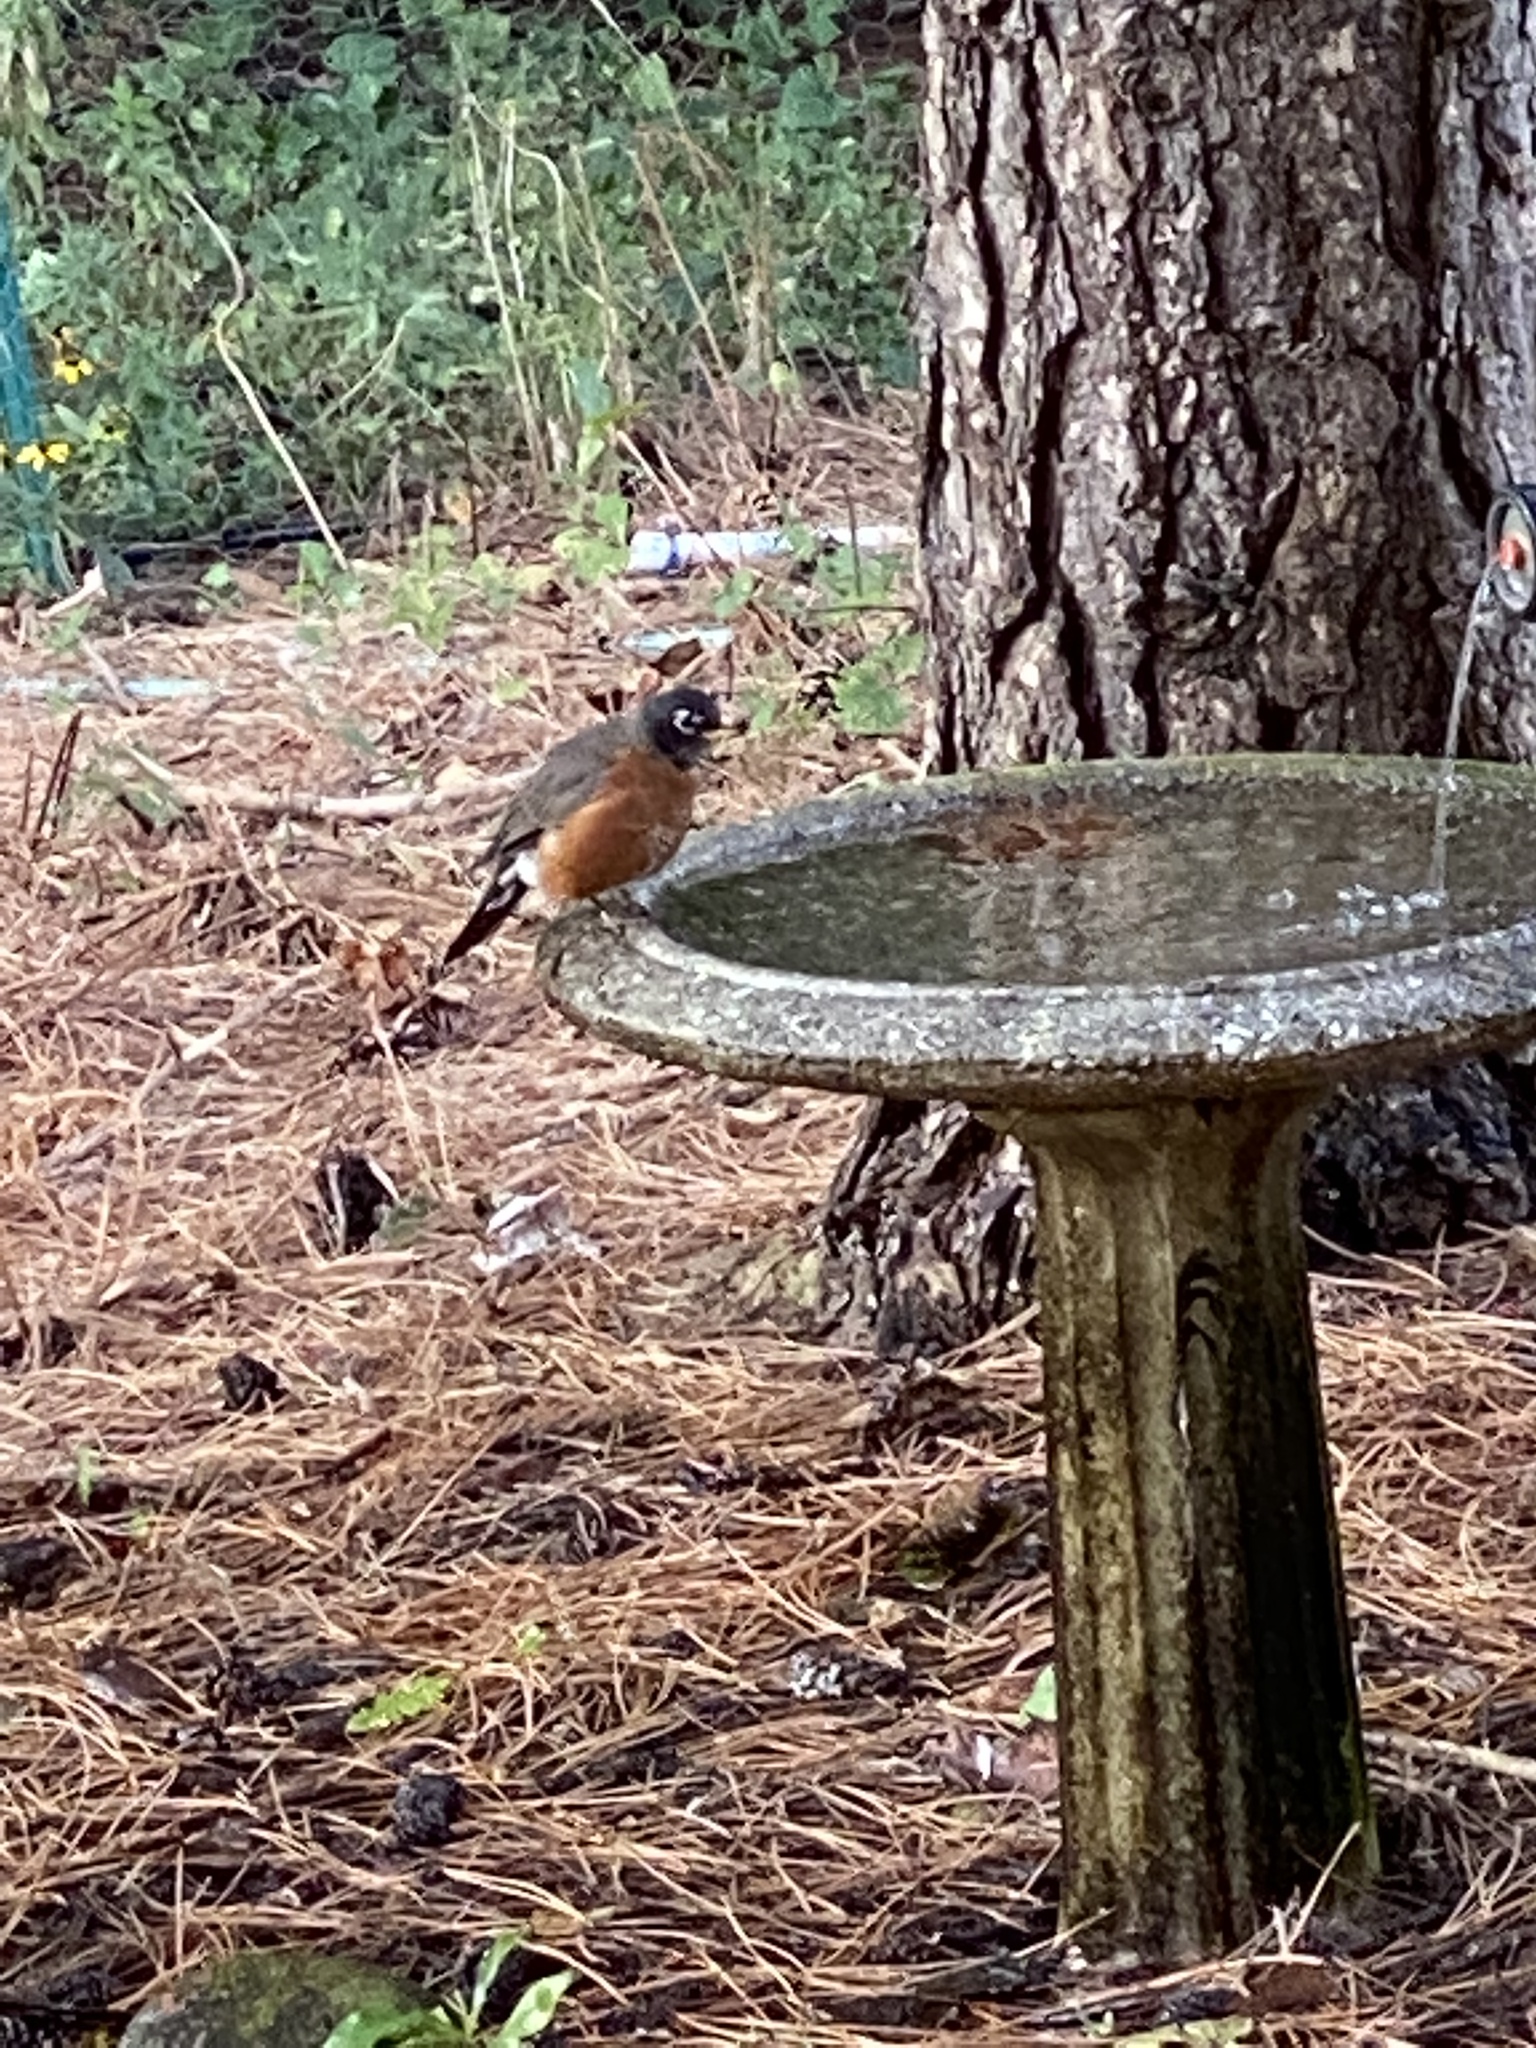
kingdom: Animalia
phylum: Chordata
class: Aves
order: Passeriformes
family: Turdidae
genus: Turdus
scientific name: Turdus migratorius
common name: American robin
